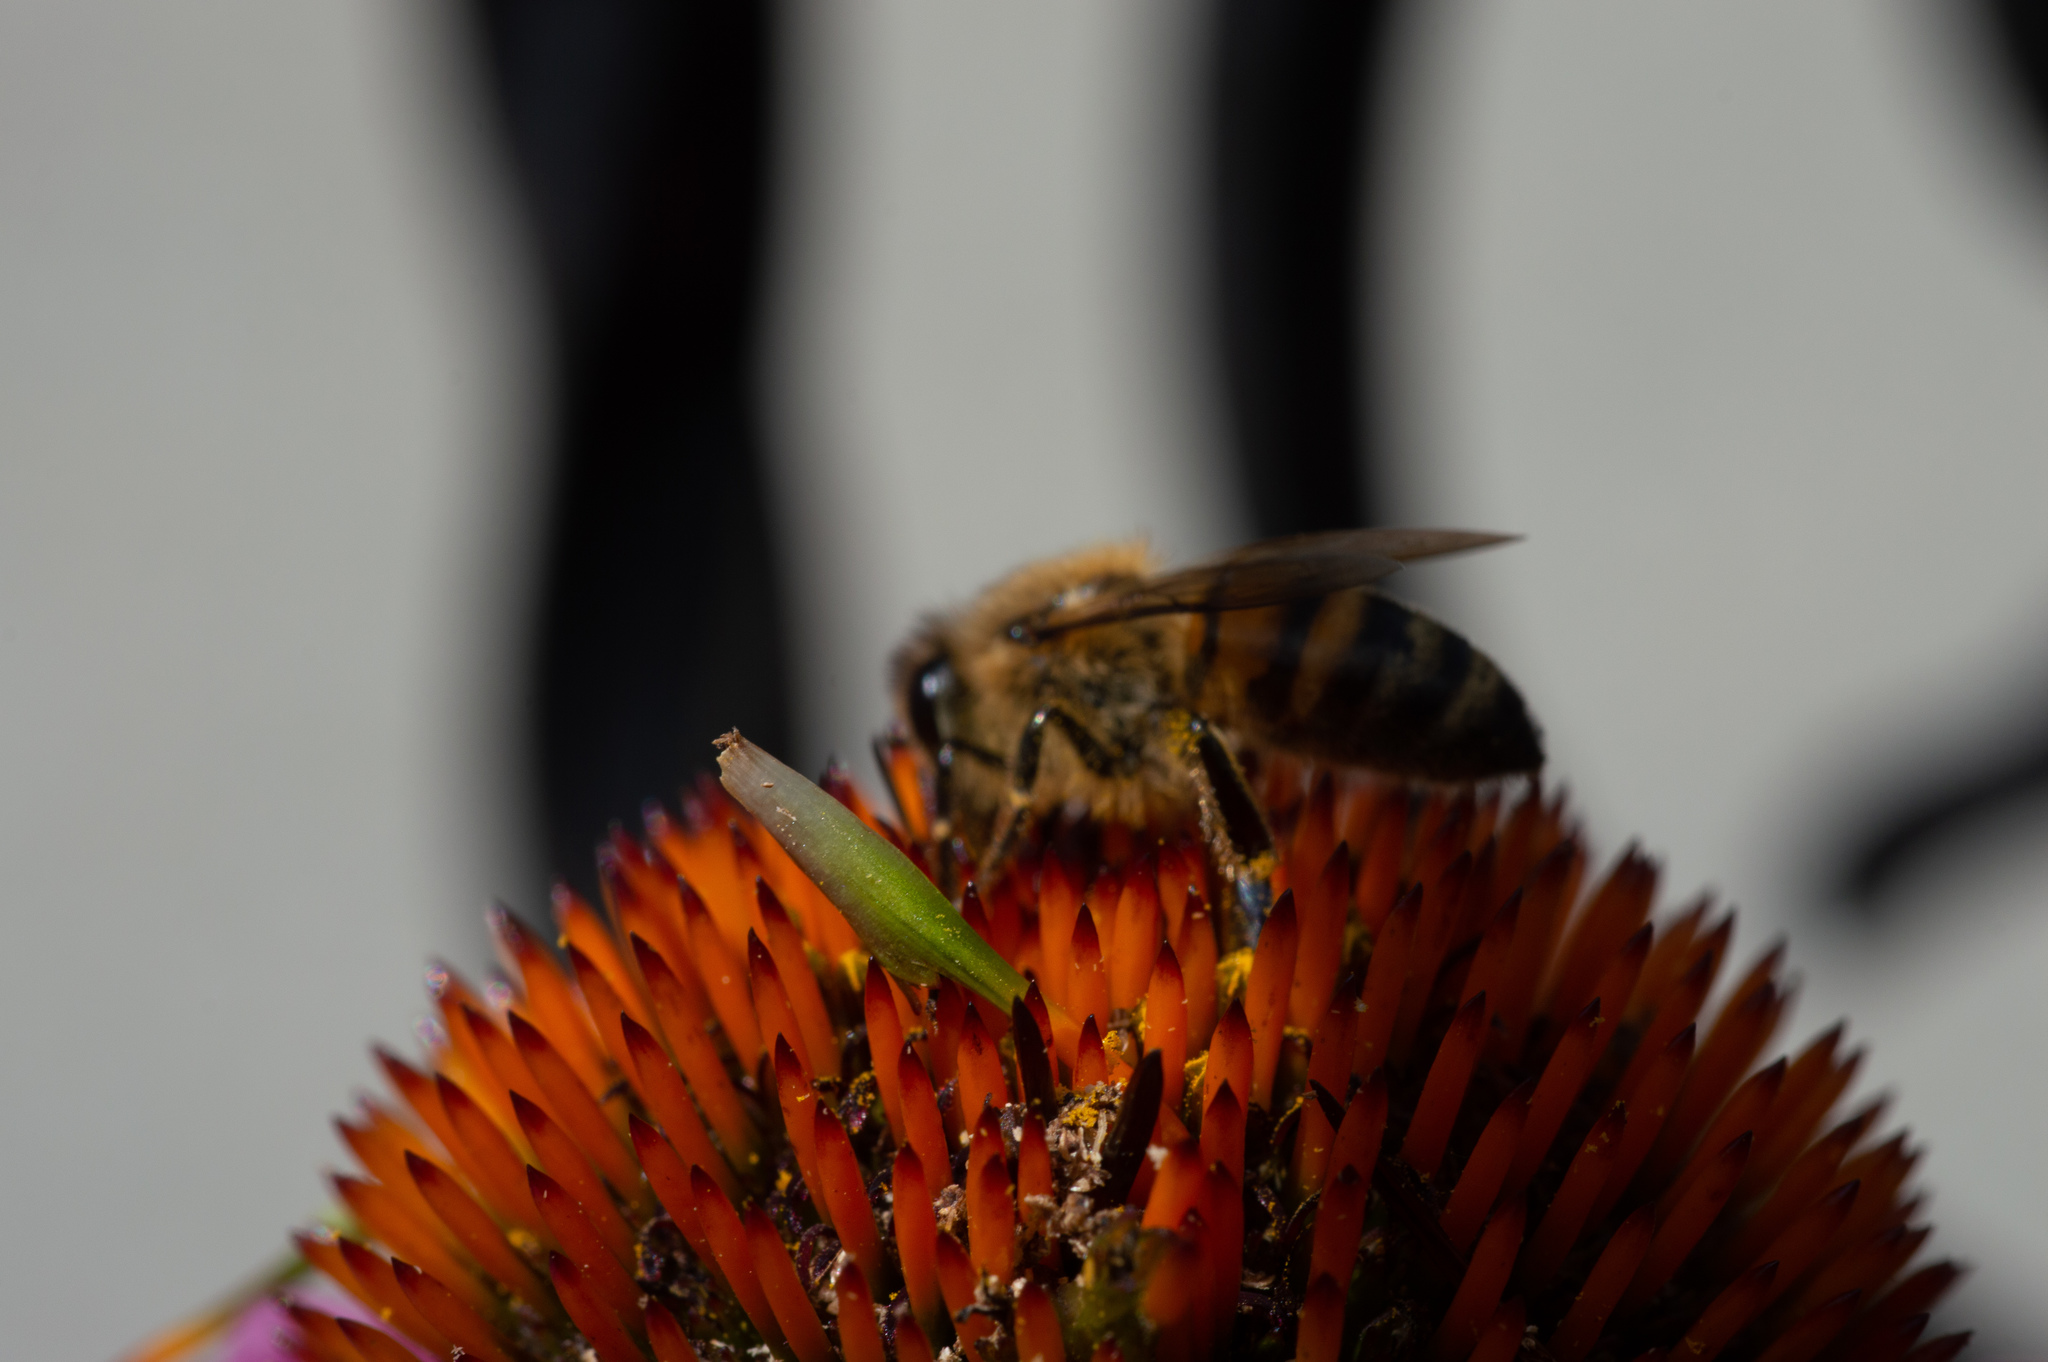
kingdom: Animalia
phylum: Arthropoda
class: Insecta
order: Hymenoptera
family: Apidae
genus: Apis
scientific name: Apis mellifera
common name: Honey bee
